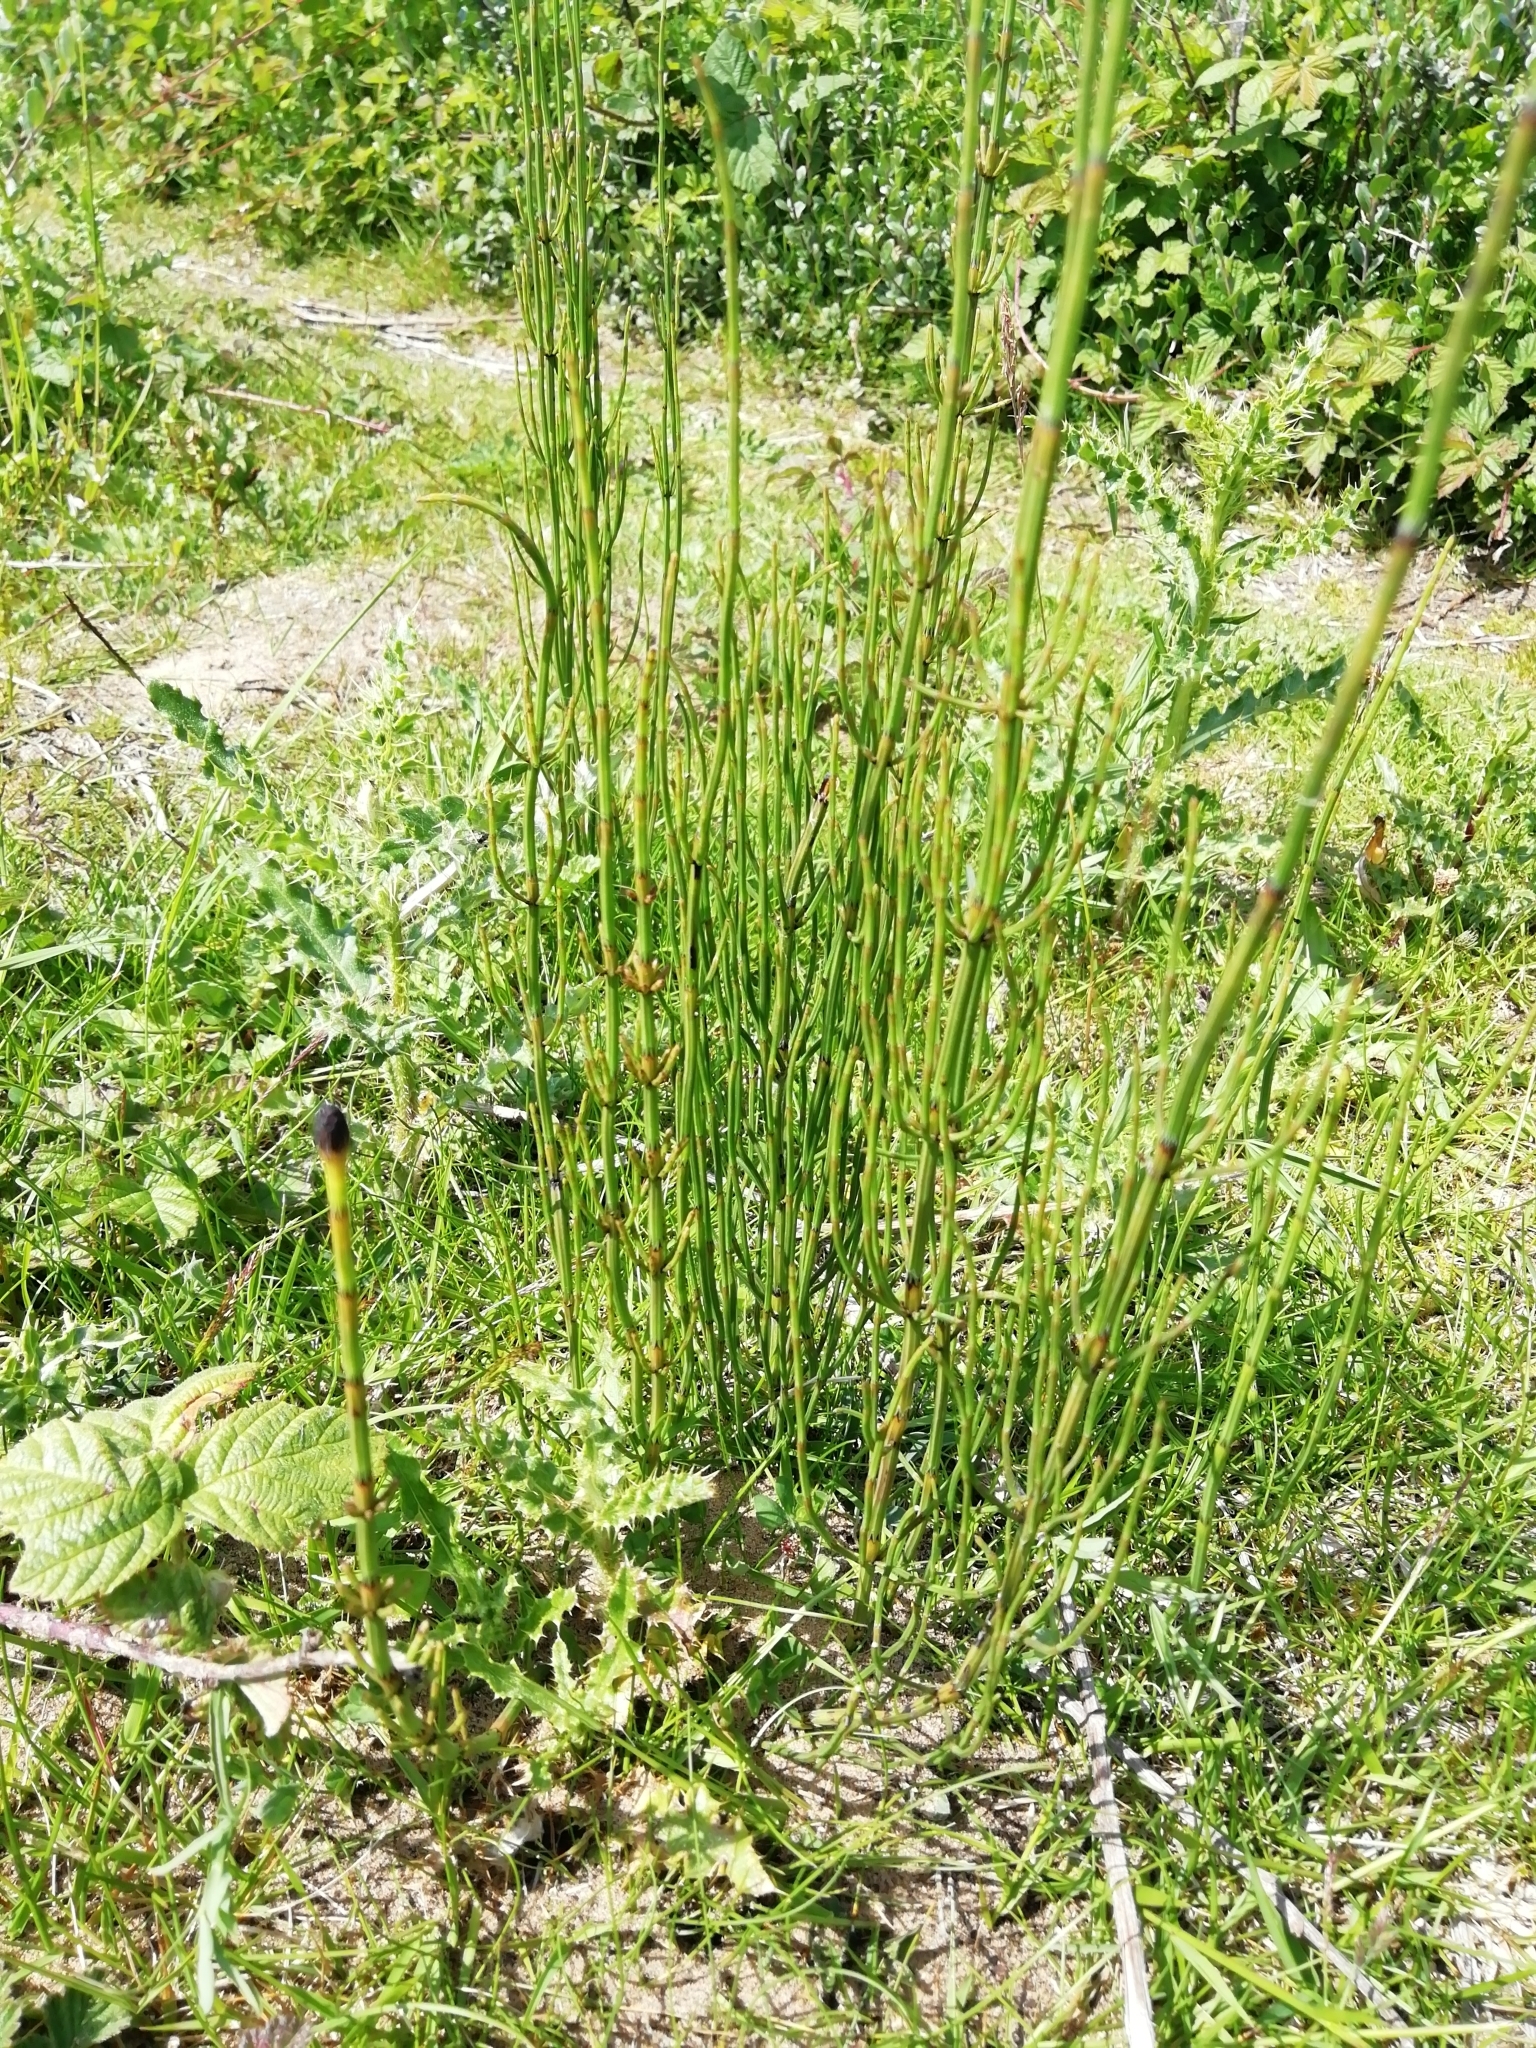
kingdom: Plantae
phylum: Tracheophyta
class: Polypodiopsida
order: Equisetales
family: Equisetaceae
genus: Equisetum
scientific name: Equisetum palustre
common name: Marsh horsetail
